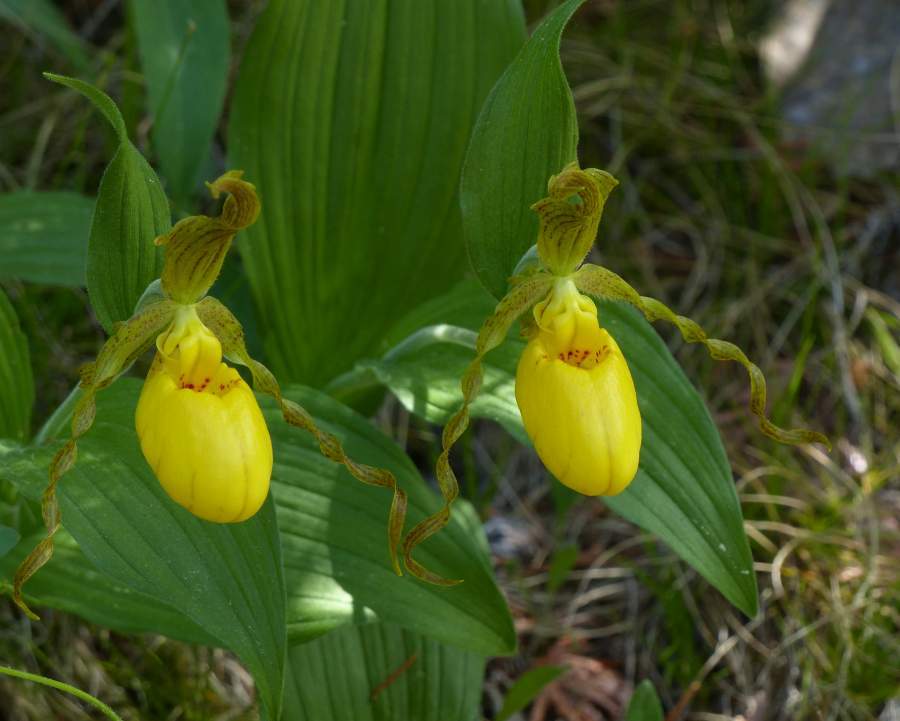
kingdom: Plantae
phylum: Tracheophyta
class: Liliopsida
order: Asparagales
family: Orchidaceae
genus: Cypripedium
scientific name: Cypripedium parviflorum
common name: American yellow lady's-slipper
